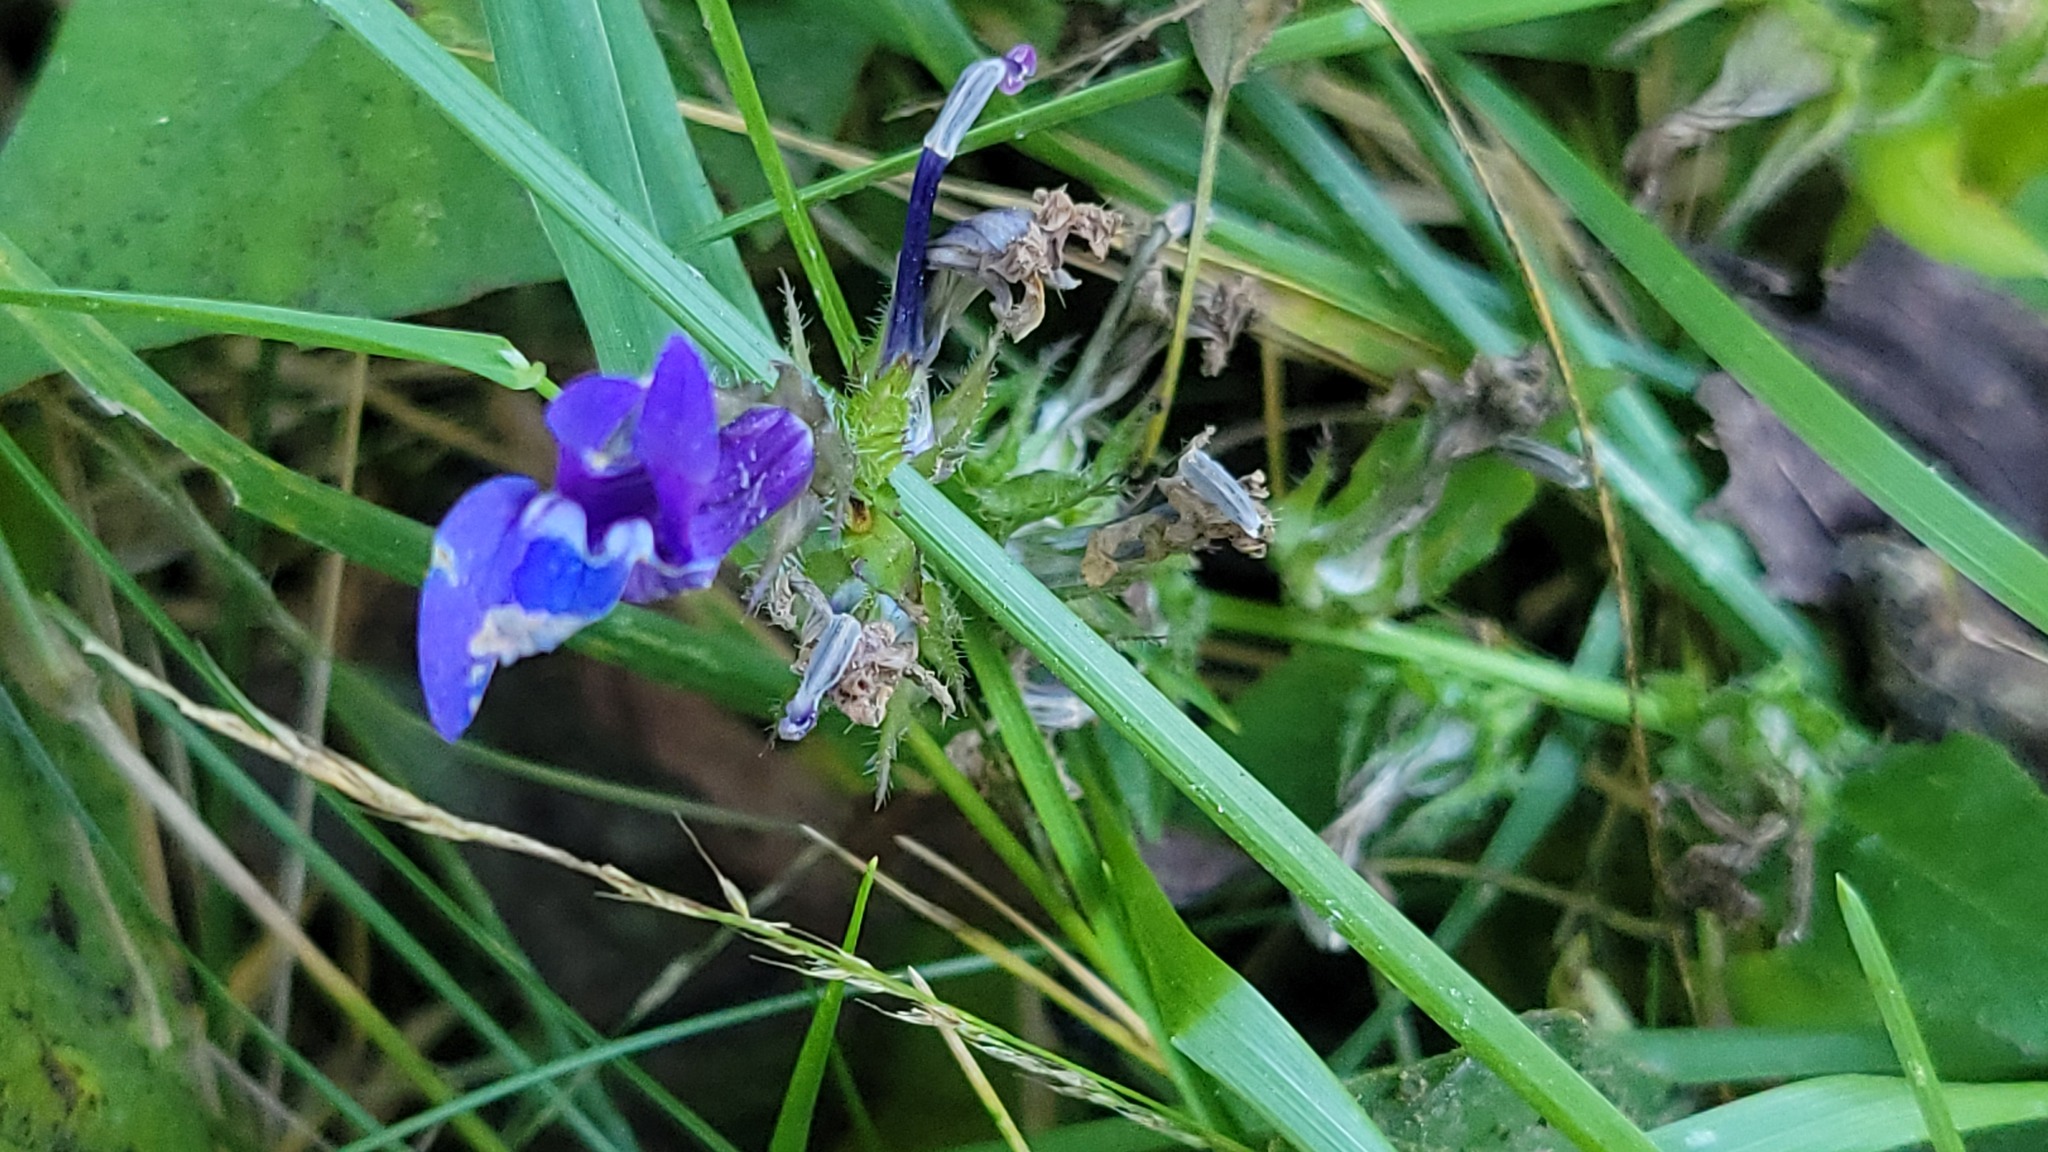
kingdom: Plantae
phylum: Tracheophyta
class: Magnoliopsida
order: Asterales
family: Campanulaceae
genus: Lobelia
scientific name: Lobelia siphilitica
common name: Great lobelia
